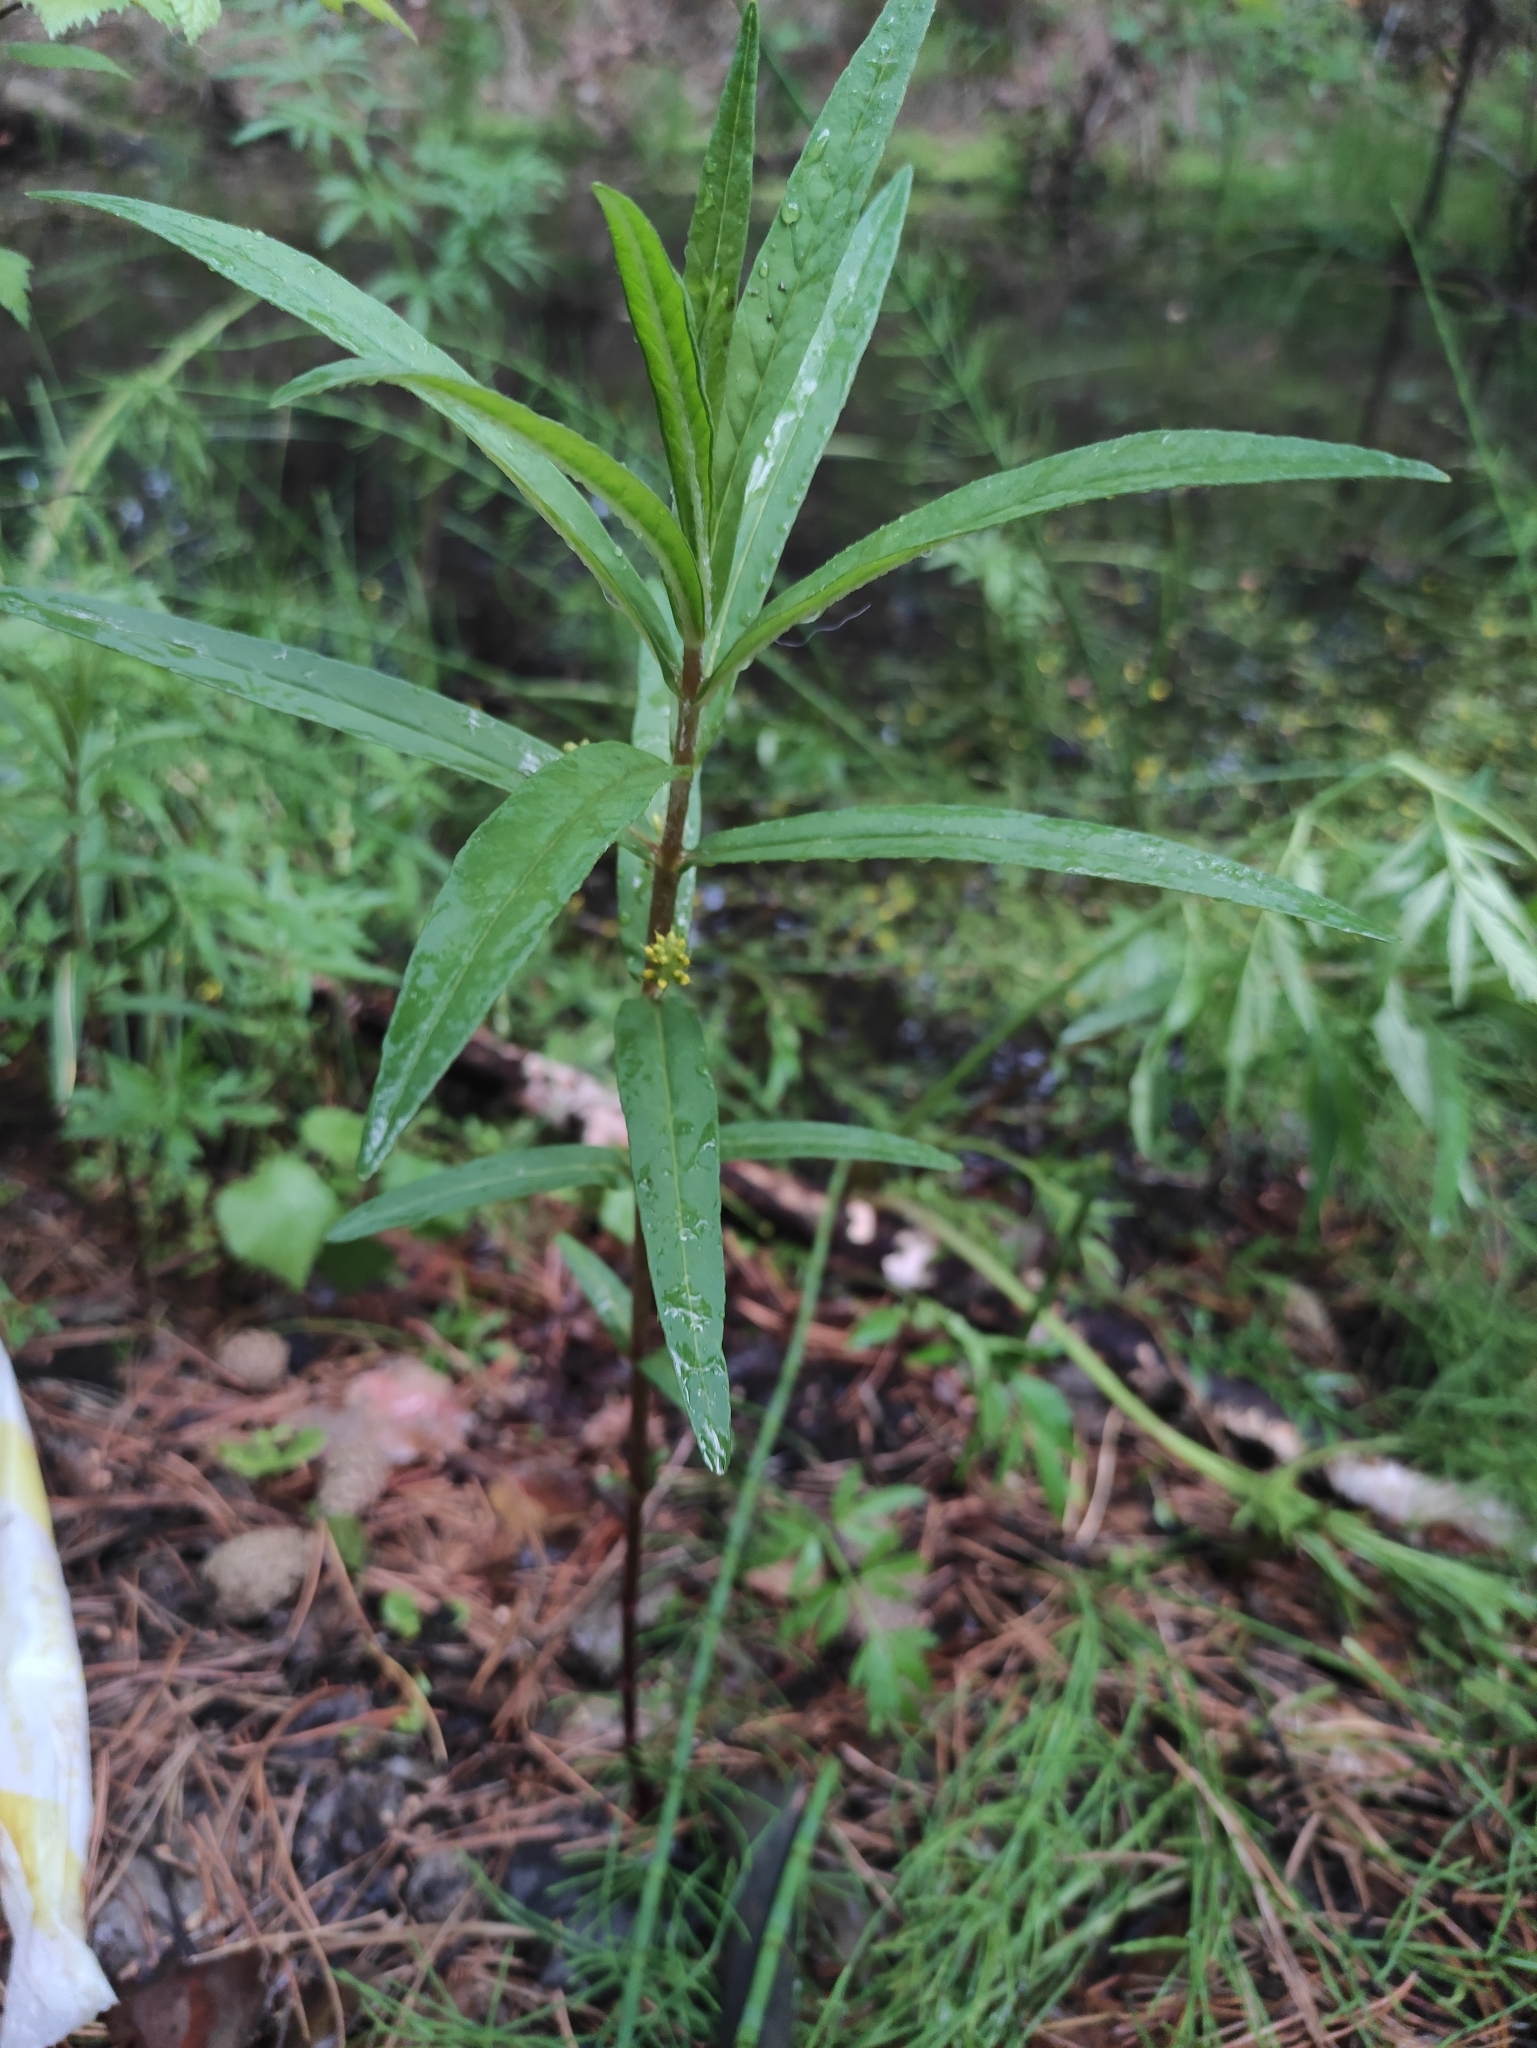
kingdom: Plantae
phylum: Tracheophyta
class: Magnoliopsida
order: Ericales
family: Primulaceae
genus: Lysimachia
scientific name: Lysimachia thyrsiflora
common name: Tufted loosestrife
